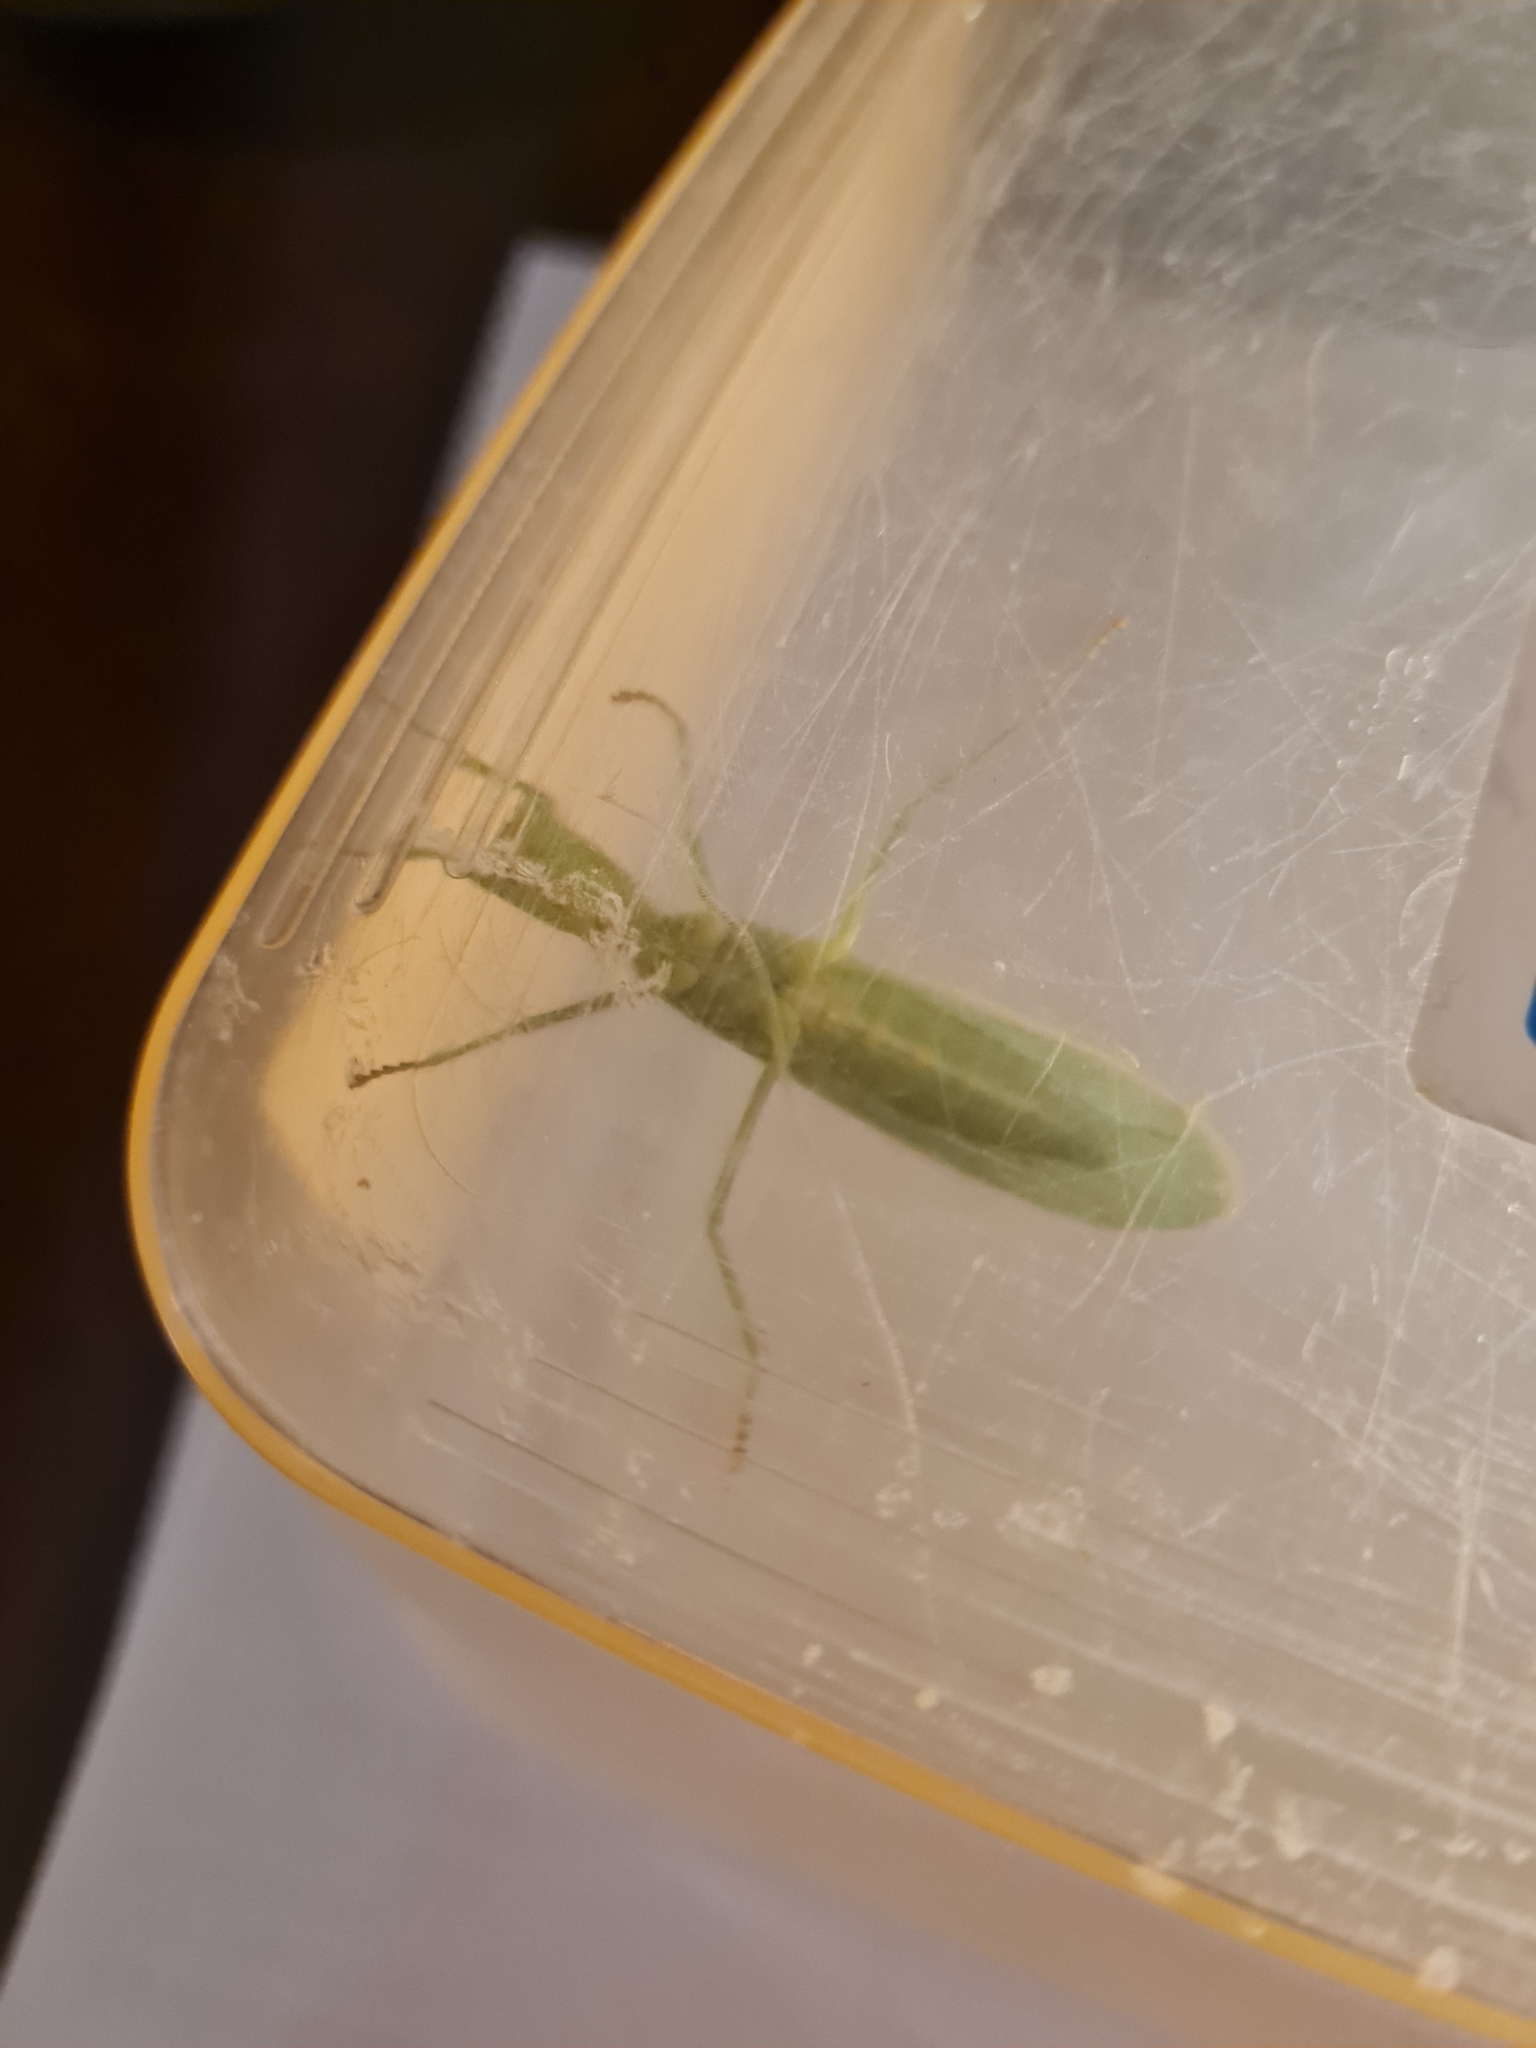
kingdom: Animalia
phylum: Arthropoda
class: Insecta
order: Mantodea
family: Mantidae
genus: Orthodera
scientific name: Orthodera novaezealandiae
